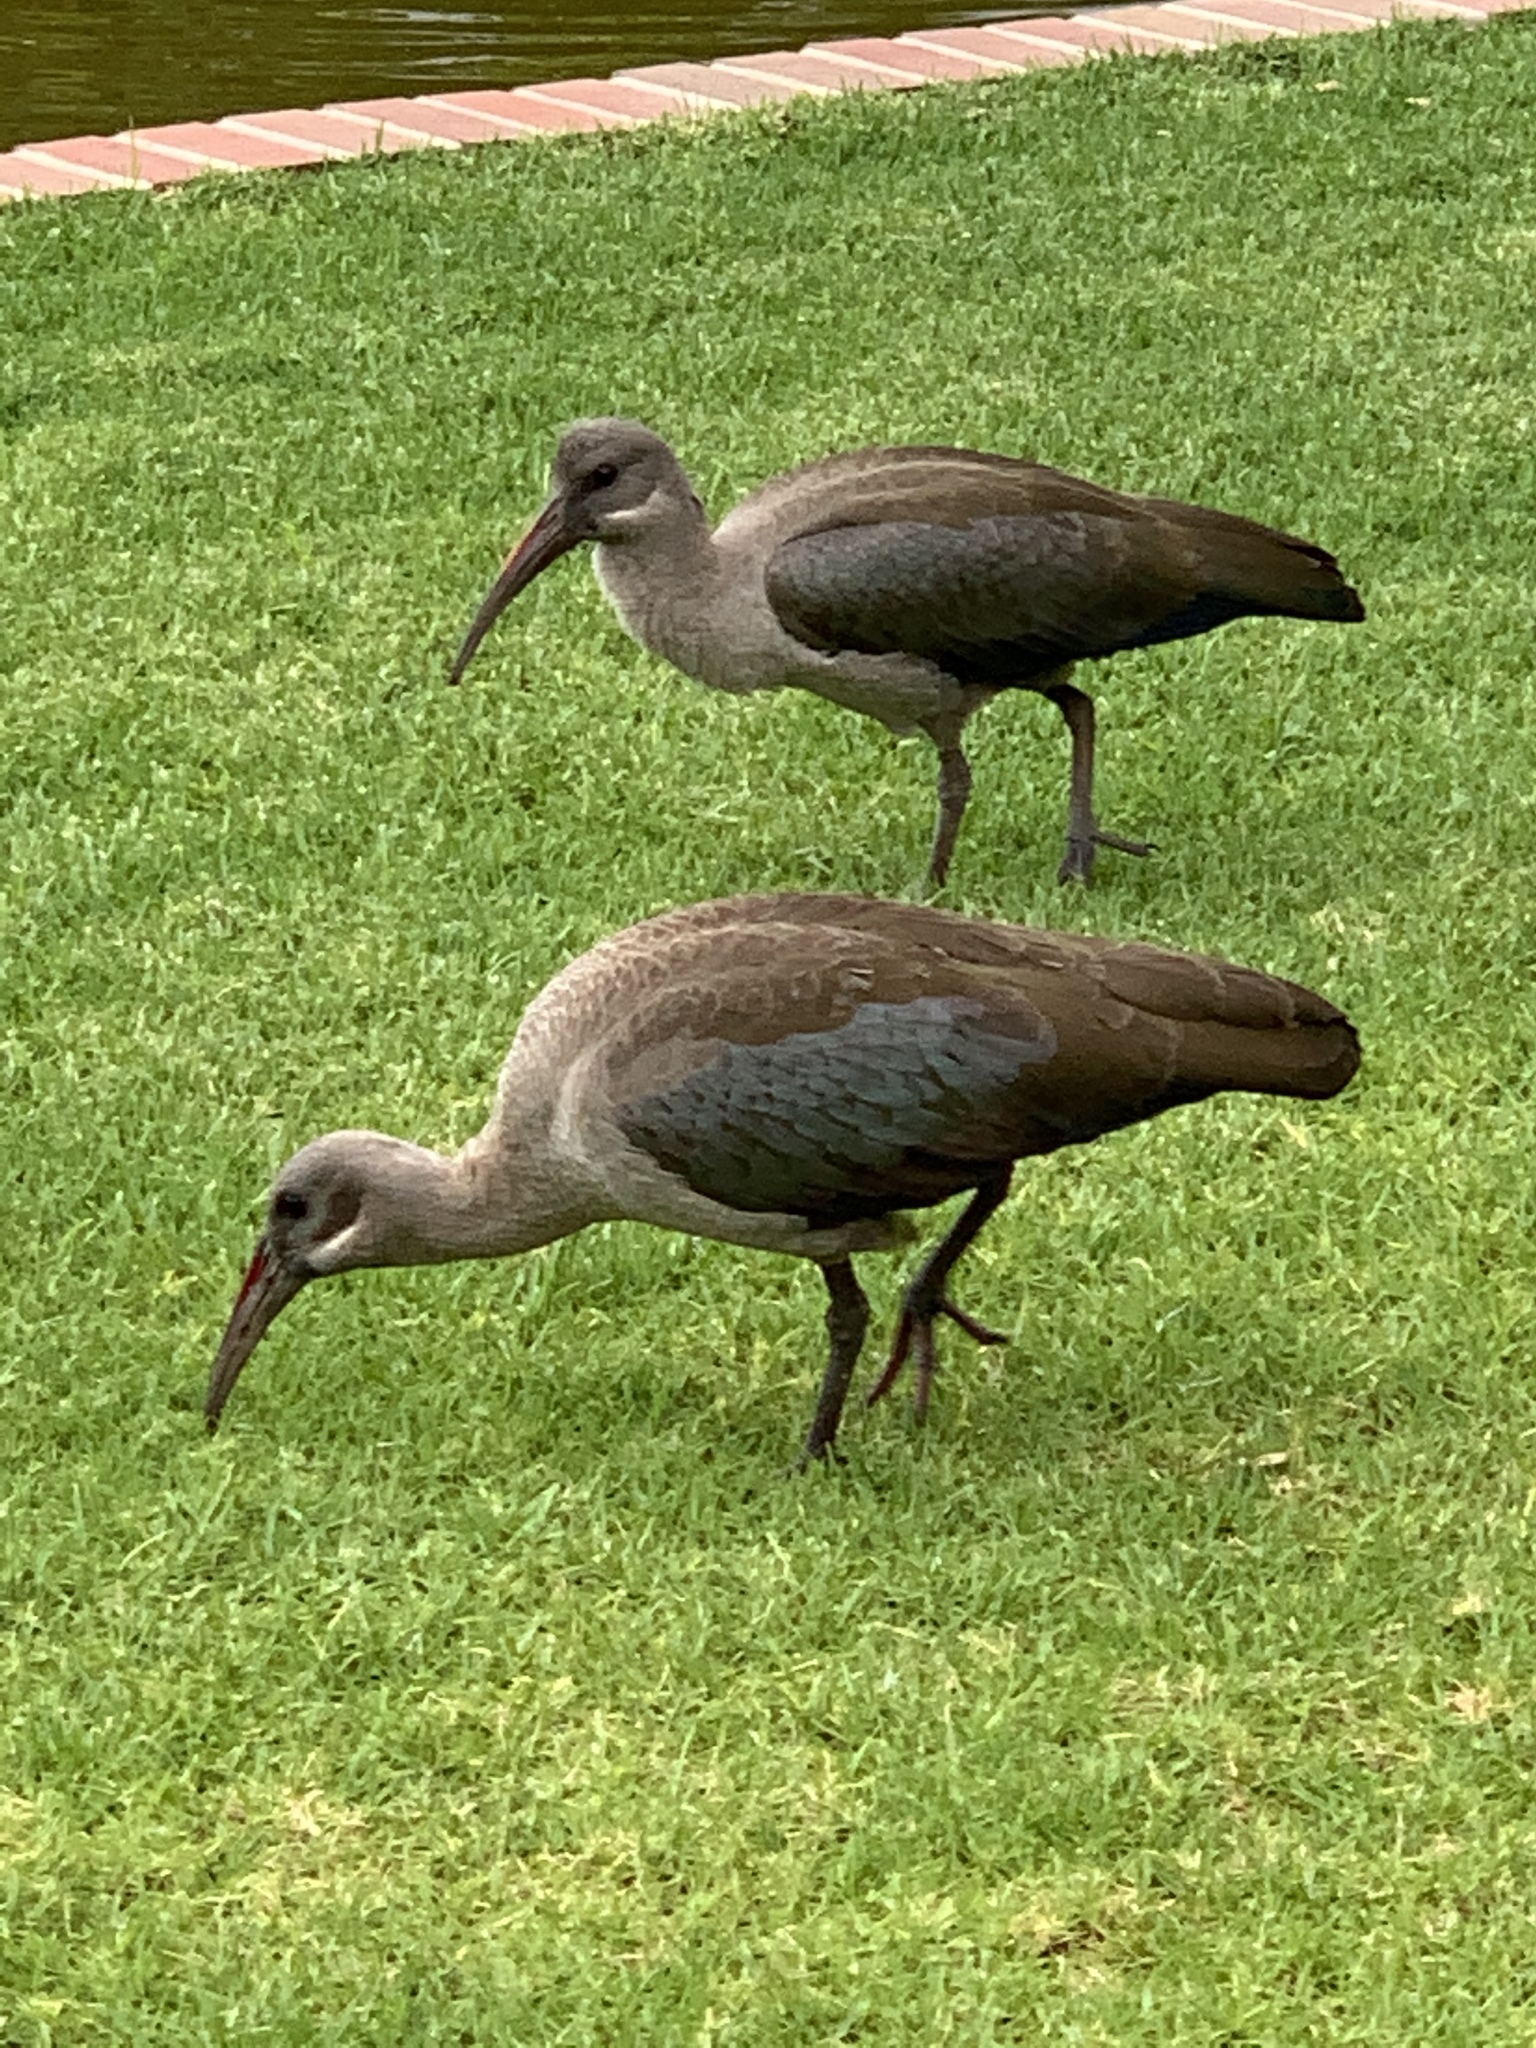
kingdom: Animalia
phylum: Chordata
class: Aves
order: Pelecaniformes
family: Threskiornithidae
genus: Bostrychia
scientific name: Bostrychia hagedash
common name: Hadada ibis
